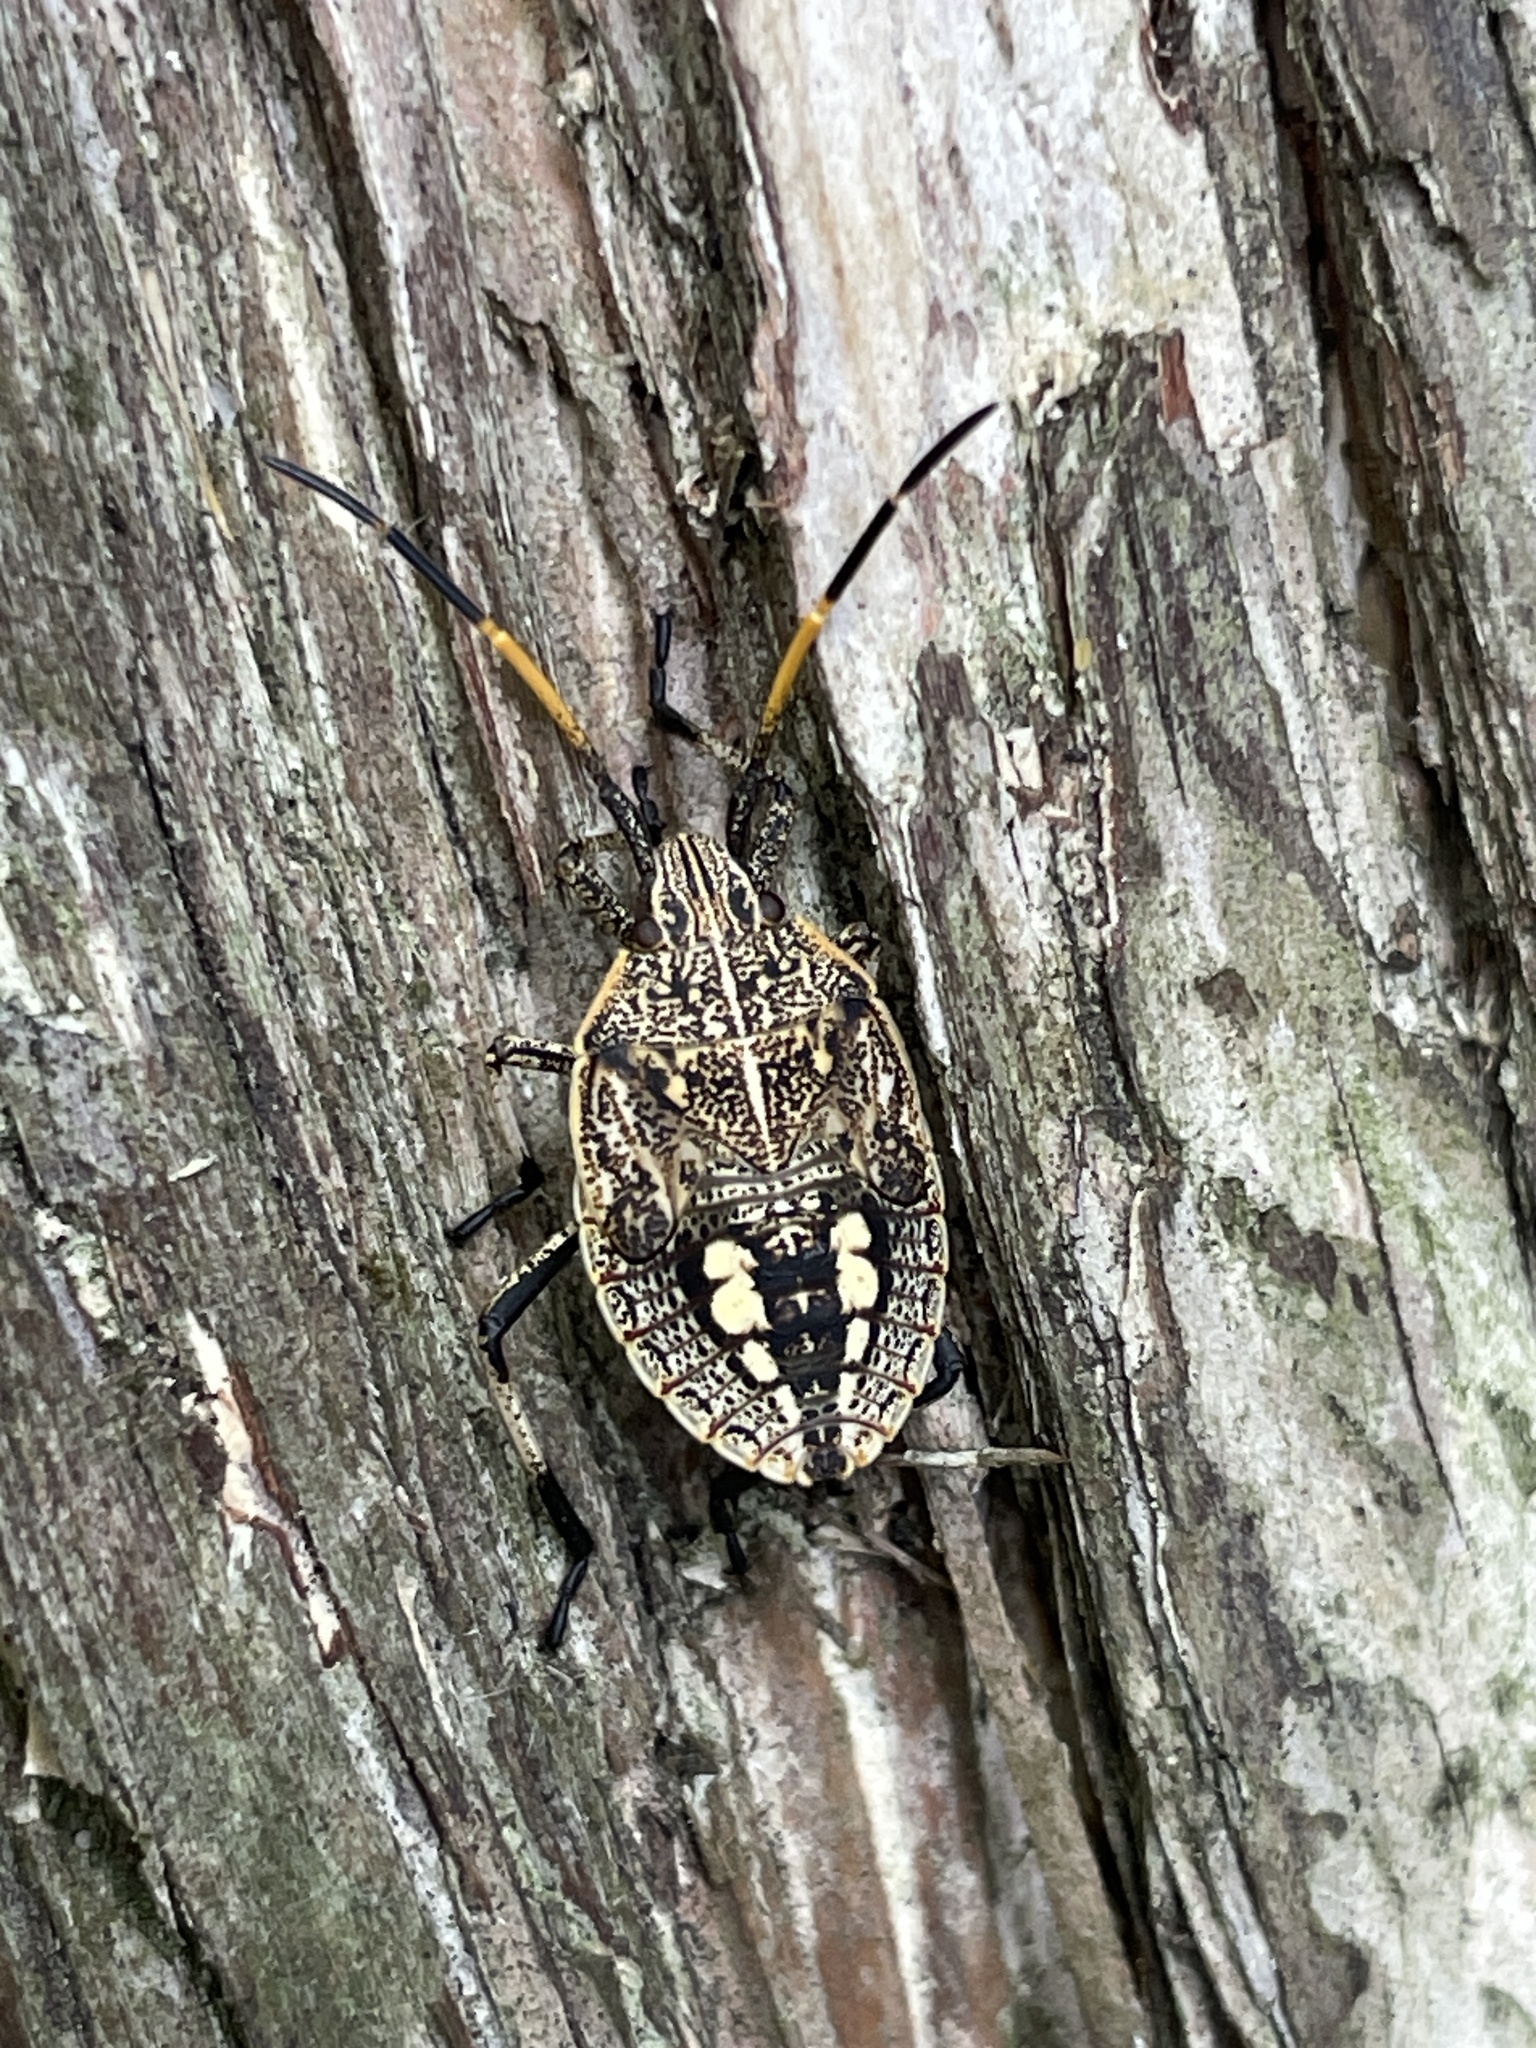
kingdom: Animalia
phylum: Arthropoda
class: Insecta
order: Hemiptera
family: Pentatomidae
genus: Poecilometis
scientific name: Poecilometis
